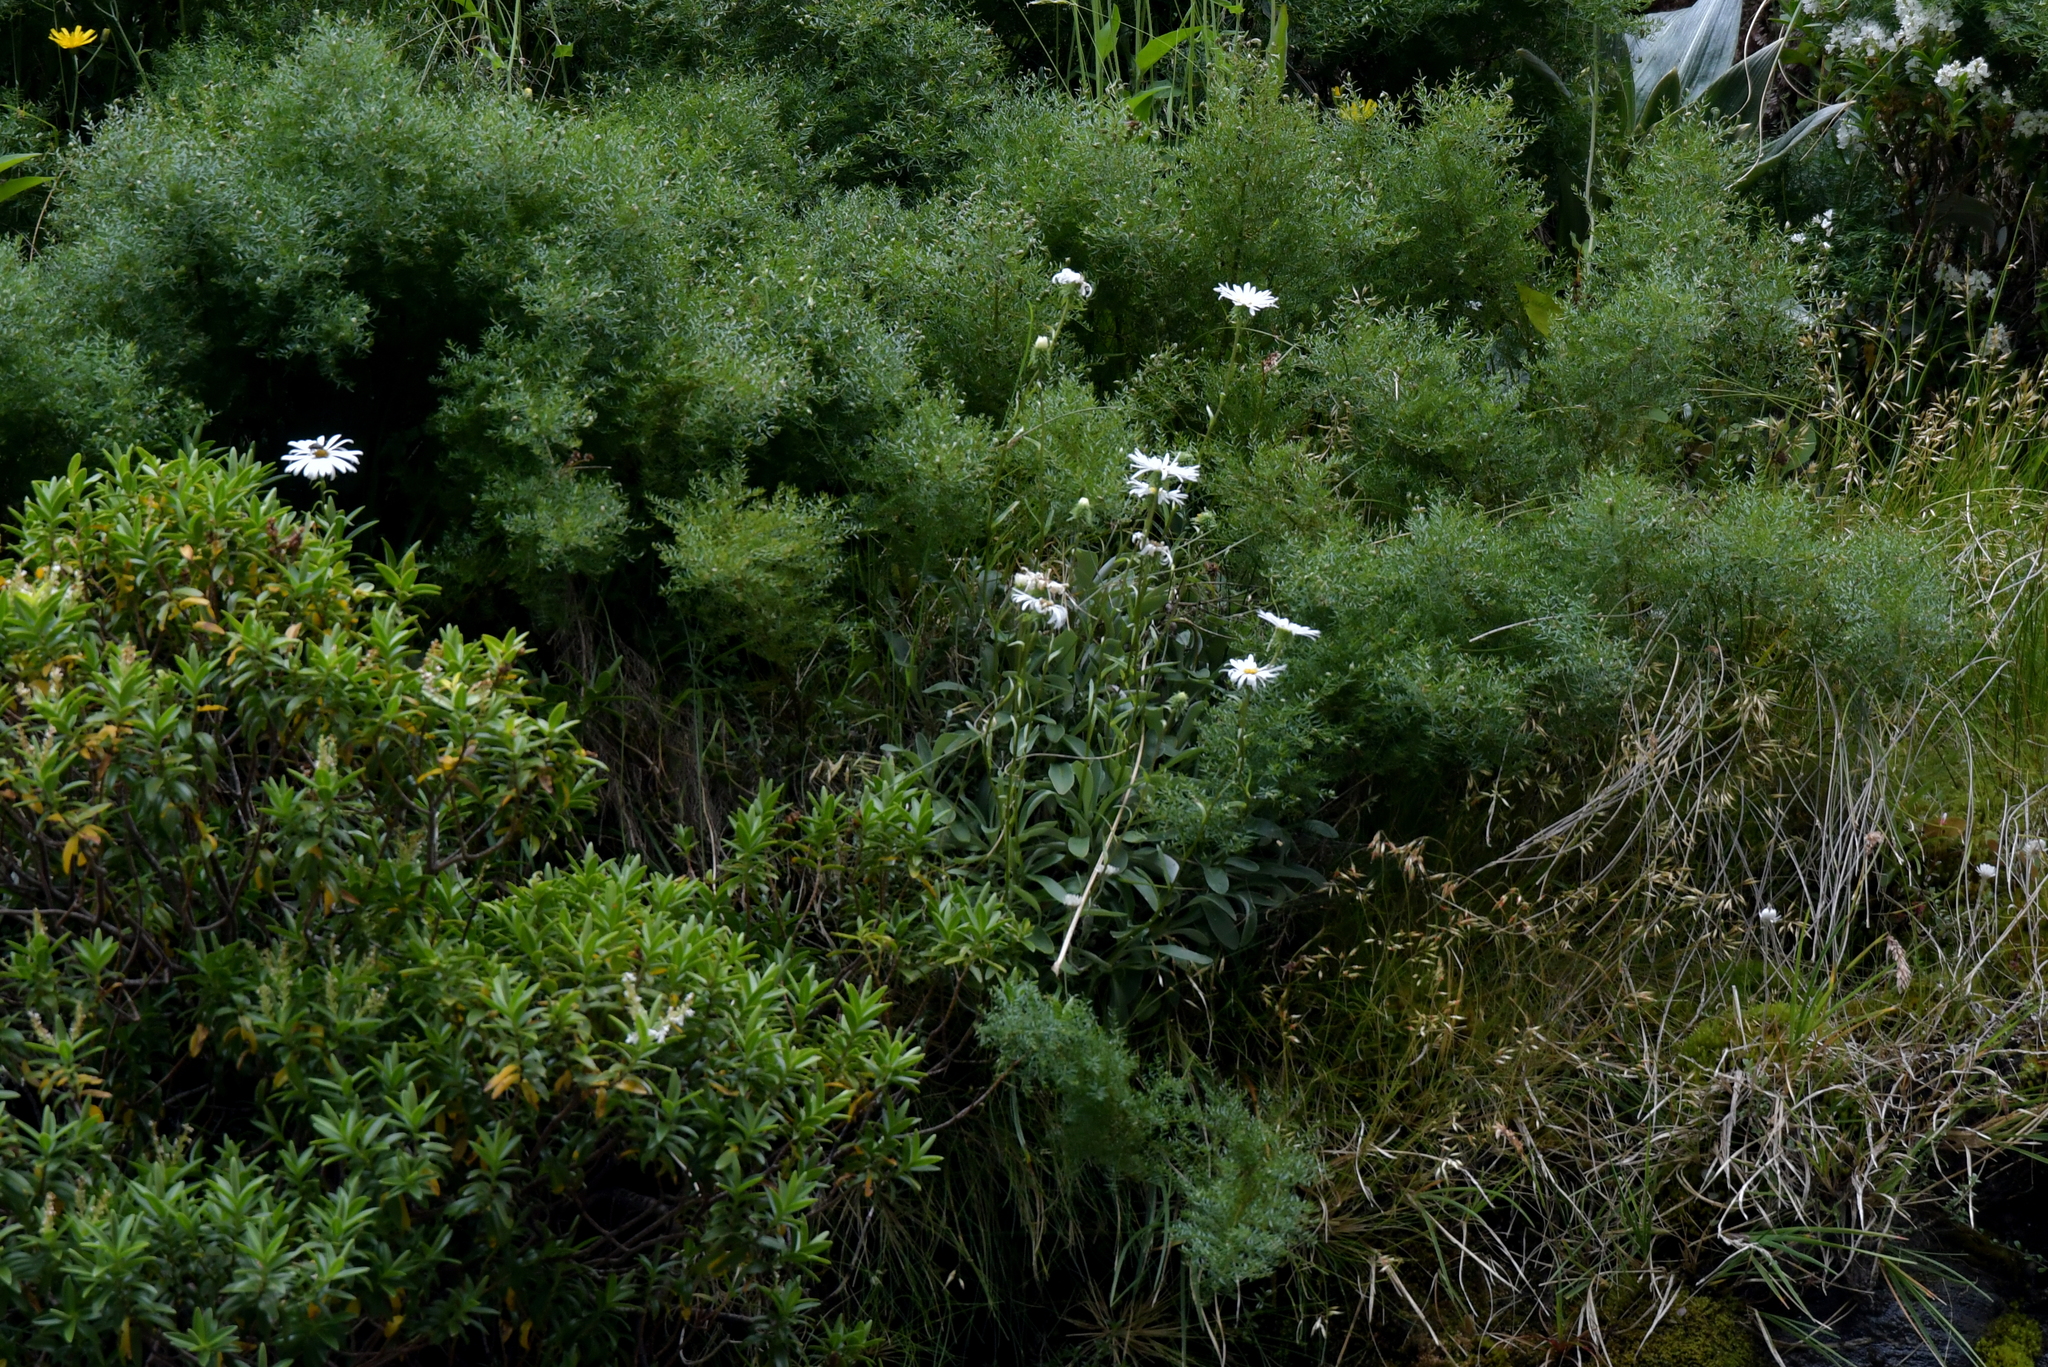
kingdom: Plantae
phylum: Tracheophyta
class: Magnoliopsida
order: Asterales
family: Asteraceae
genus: Celmisia
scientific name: Celmisia durietzii
